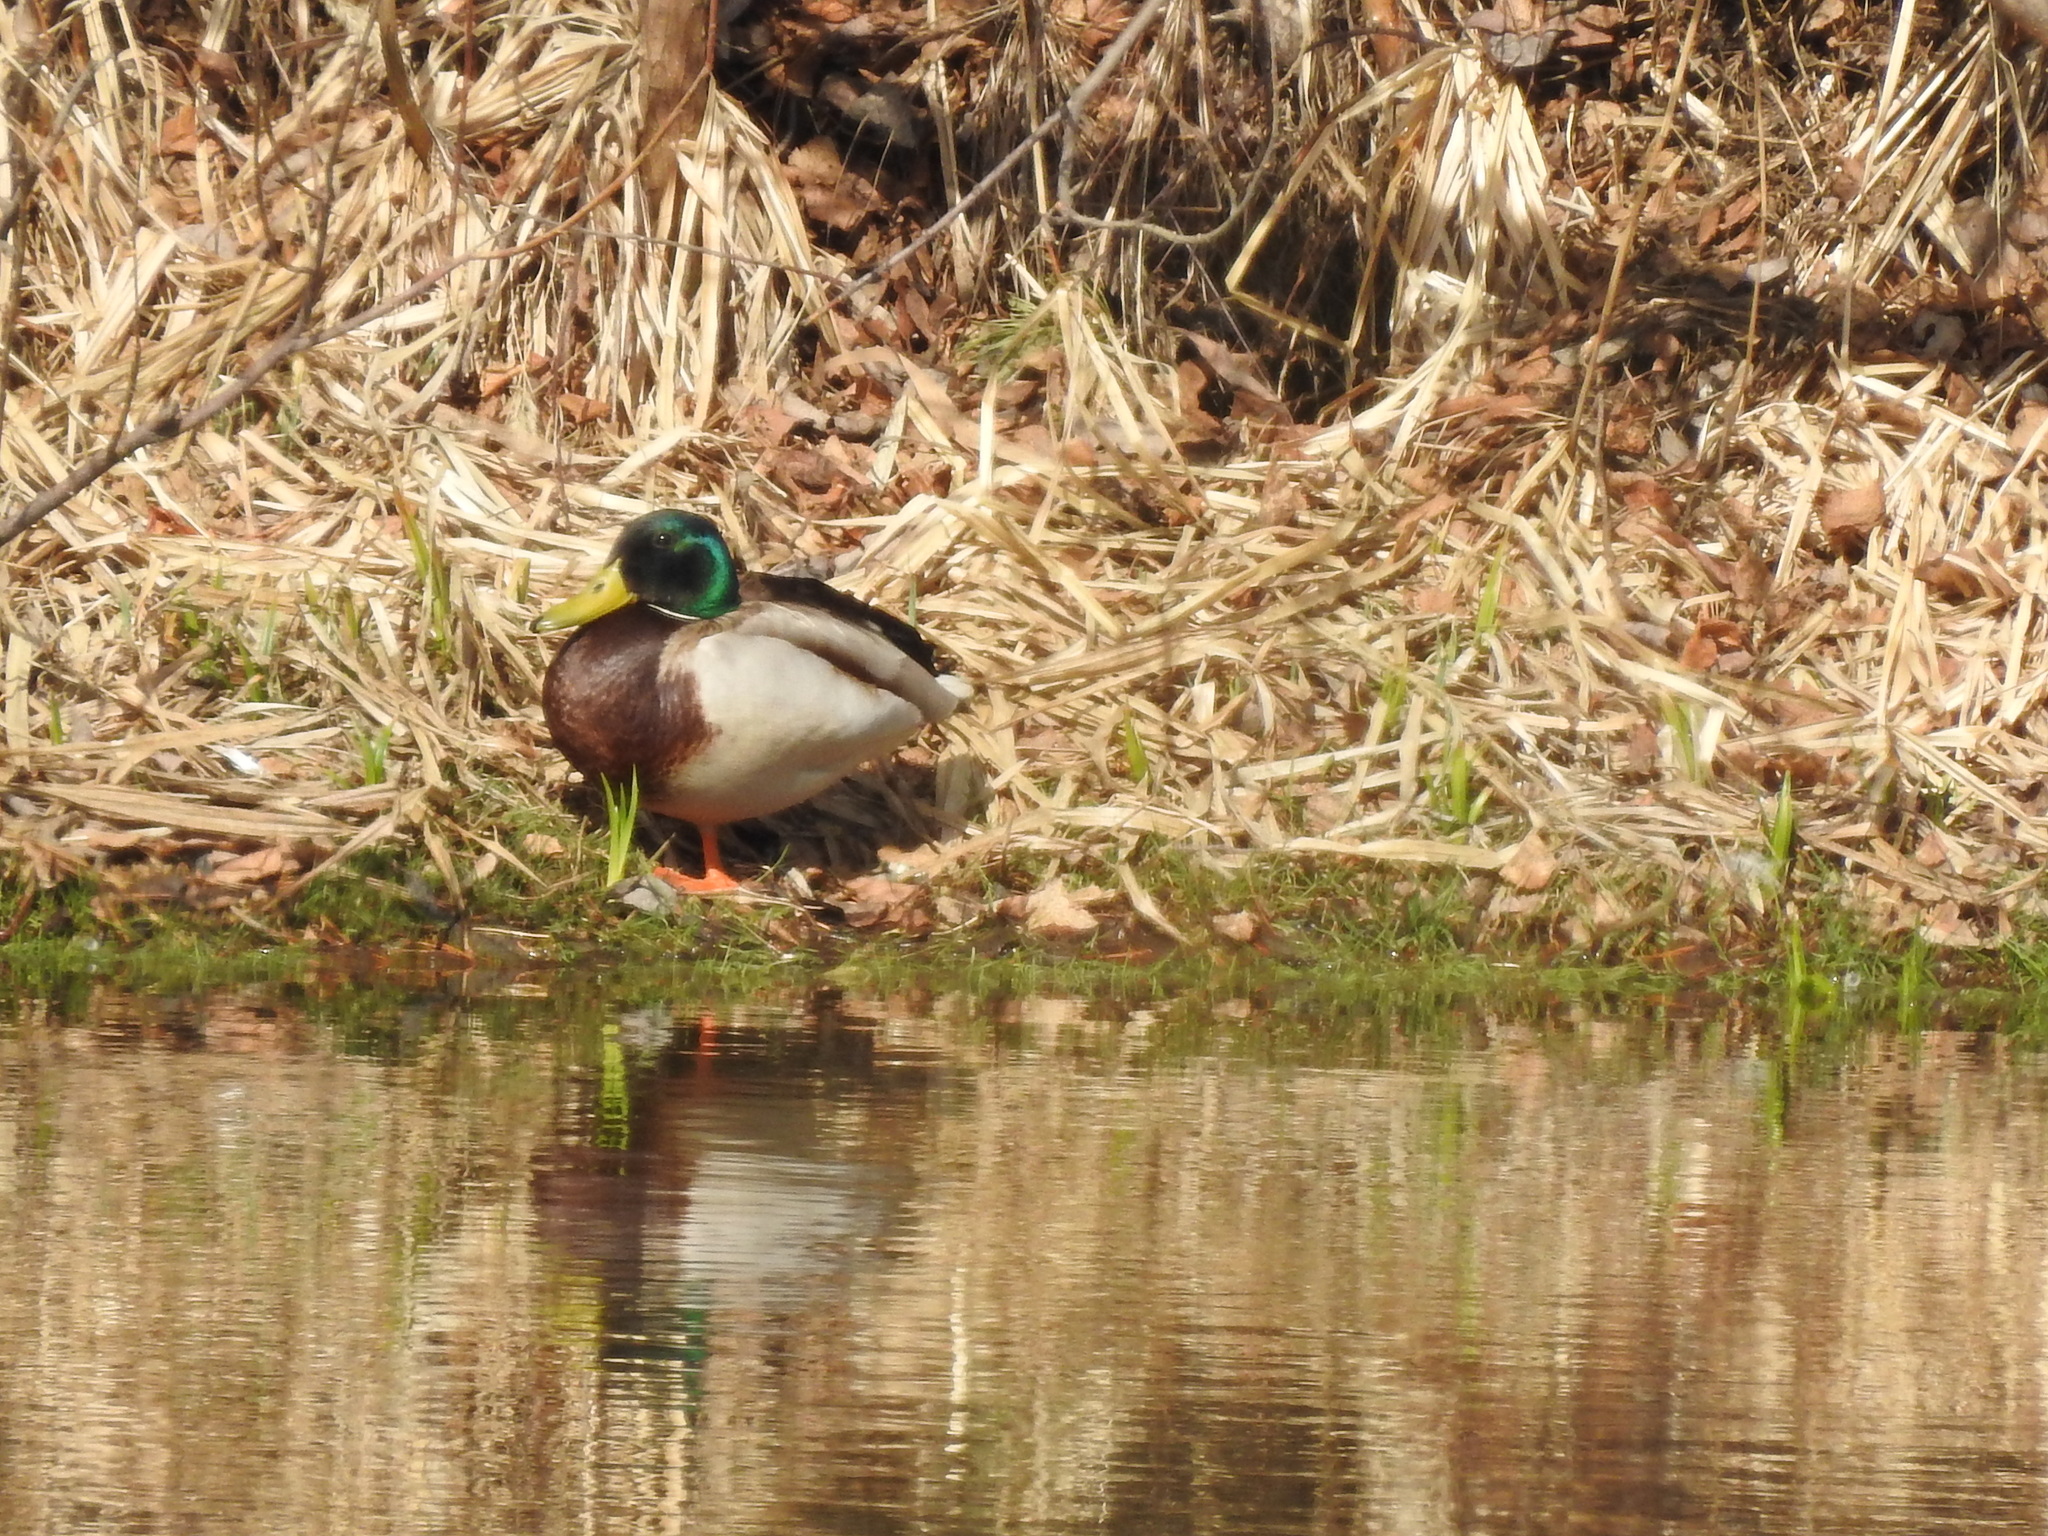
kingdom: Animalia
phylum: Chordata
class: Aves
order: Anseriformes
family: Anatidae
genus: Anas
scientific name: Anas platyrhynchos
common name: Mallard
